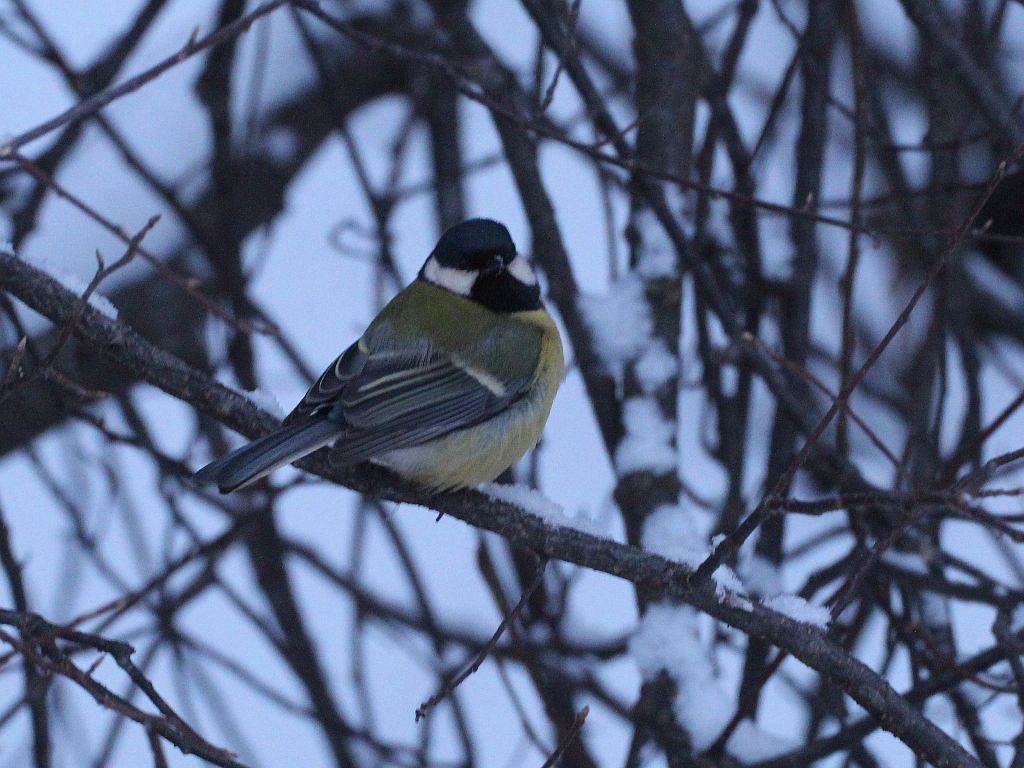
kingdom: Animalia
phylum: Chordata
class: Aves
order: Passeriformes
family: Paridae
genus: Parus
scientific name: Parus major
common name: Great tit
